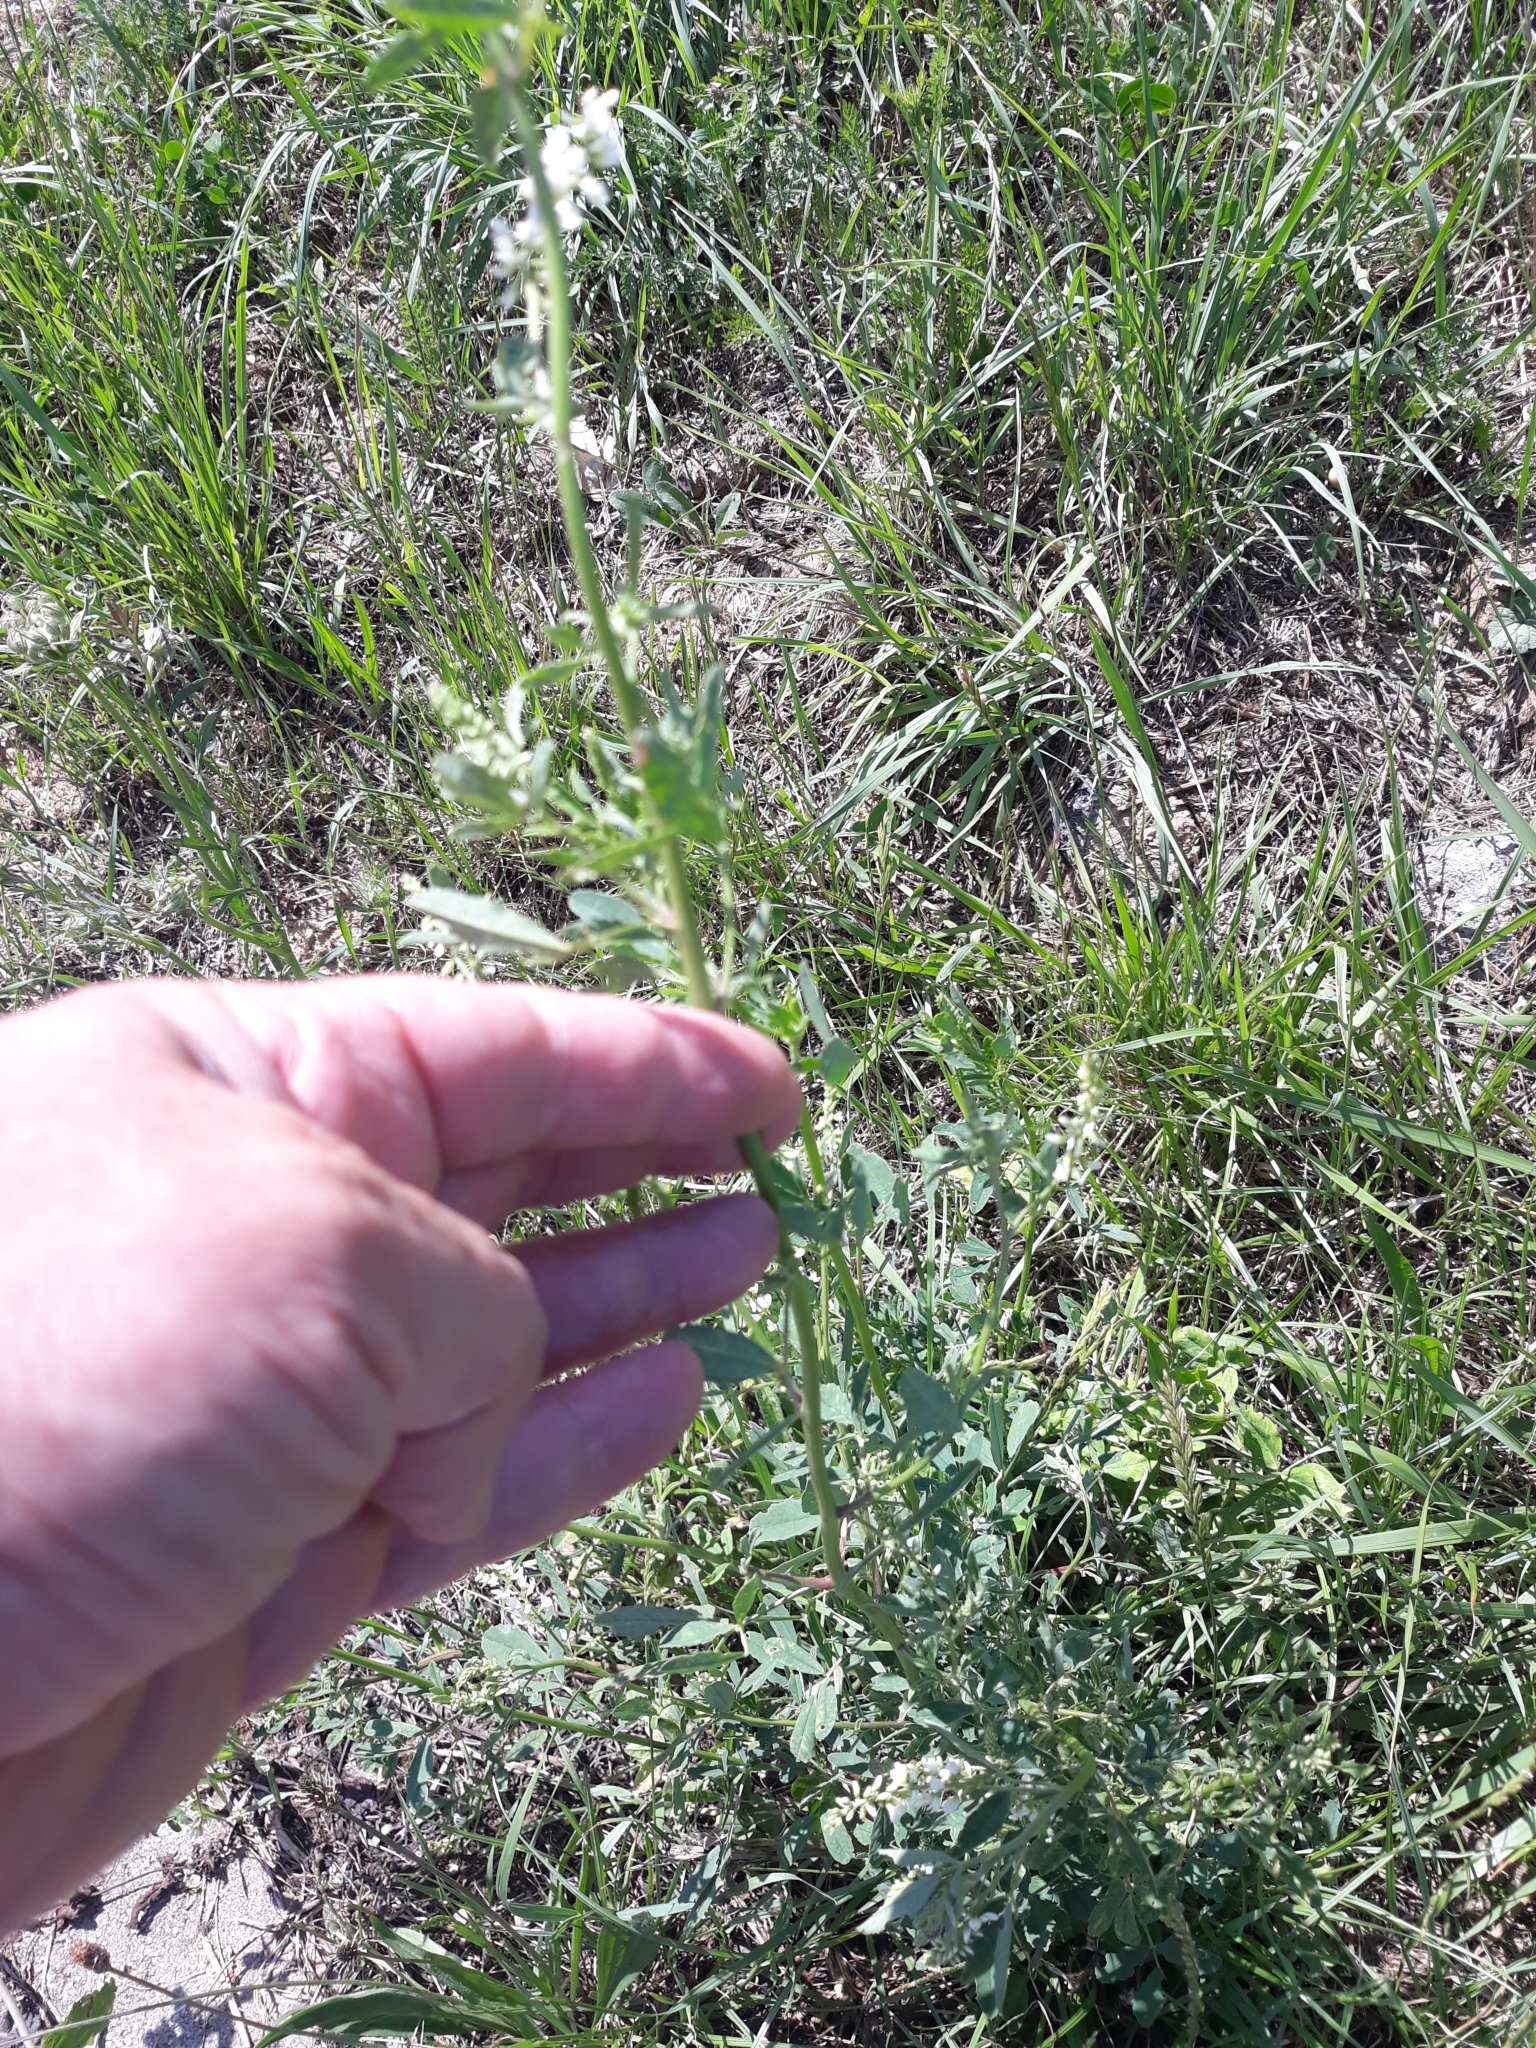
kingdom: Plantae
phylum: Tracheophyta
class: Magnoliopsida
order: Fabales
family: Fabaceae
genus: Melilotus
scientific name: Melilotus albus
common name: White melilot
